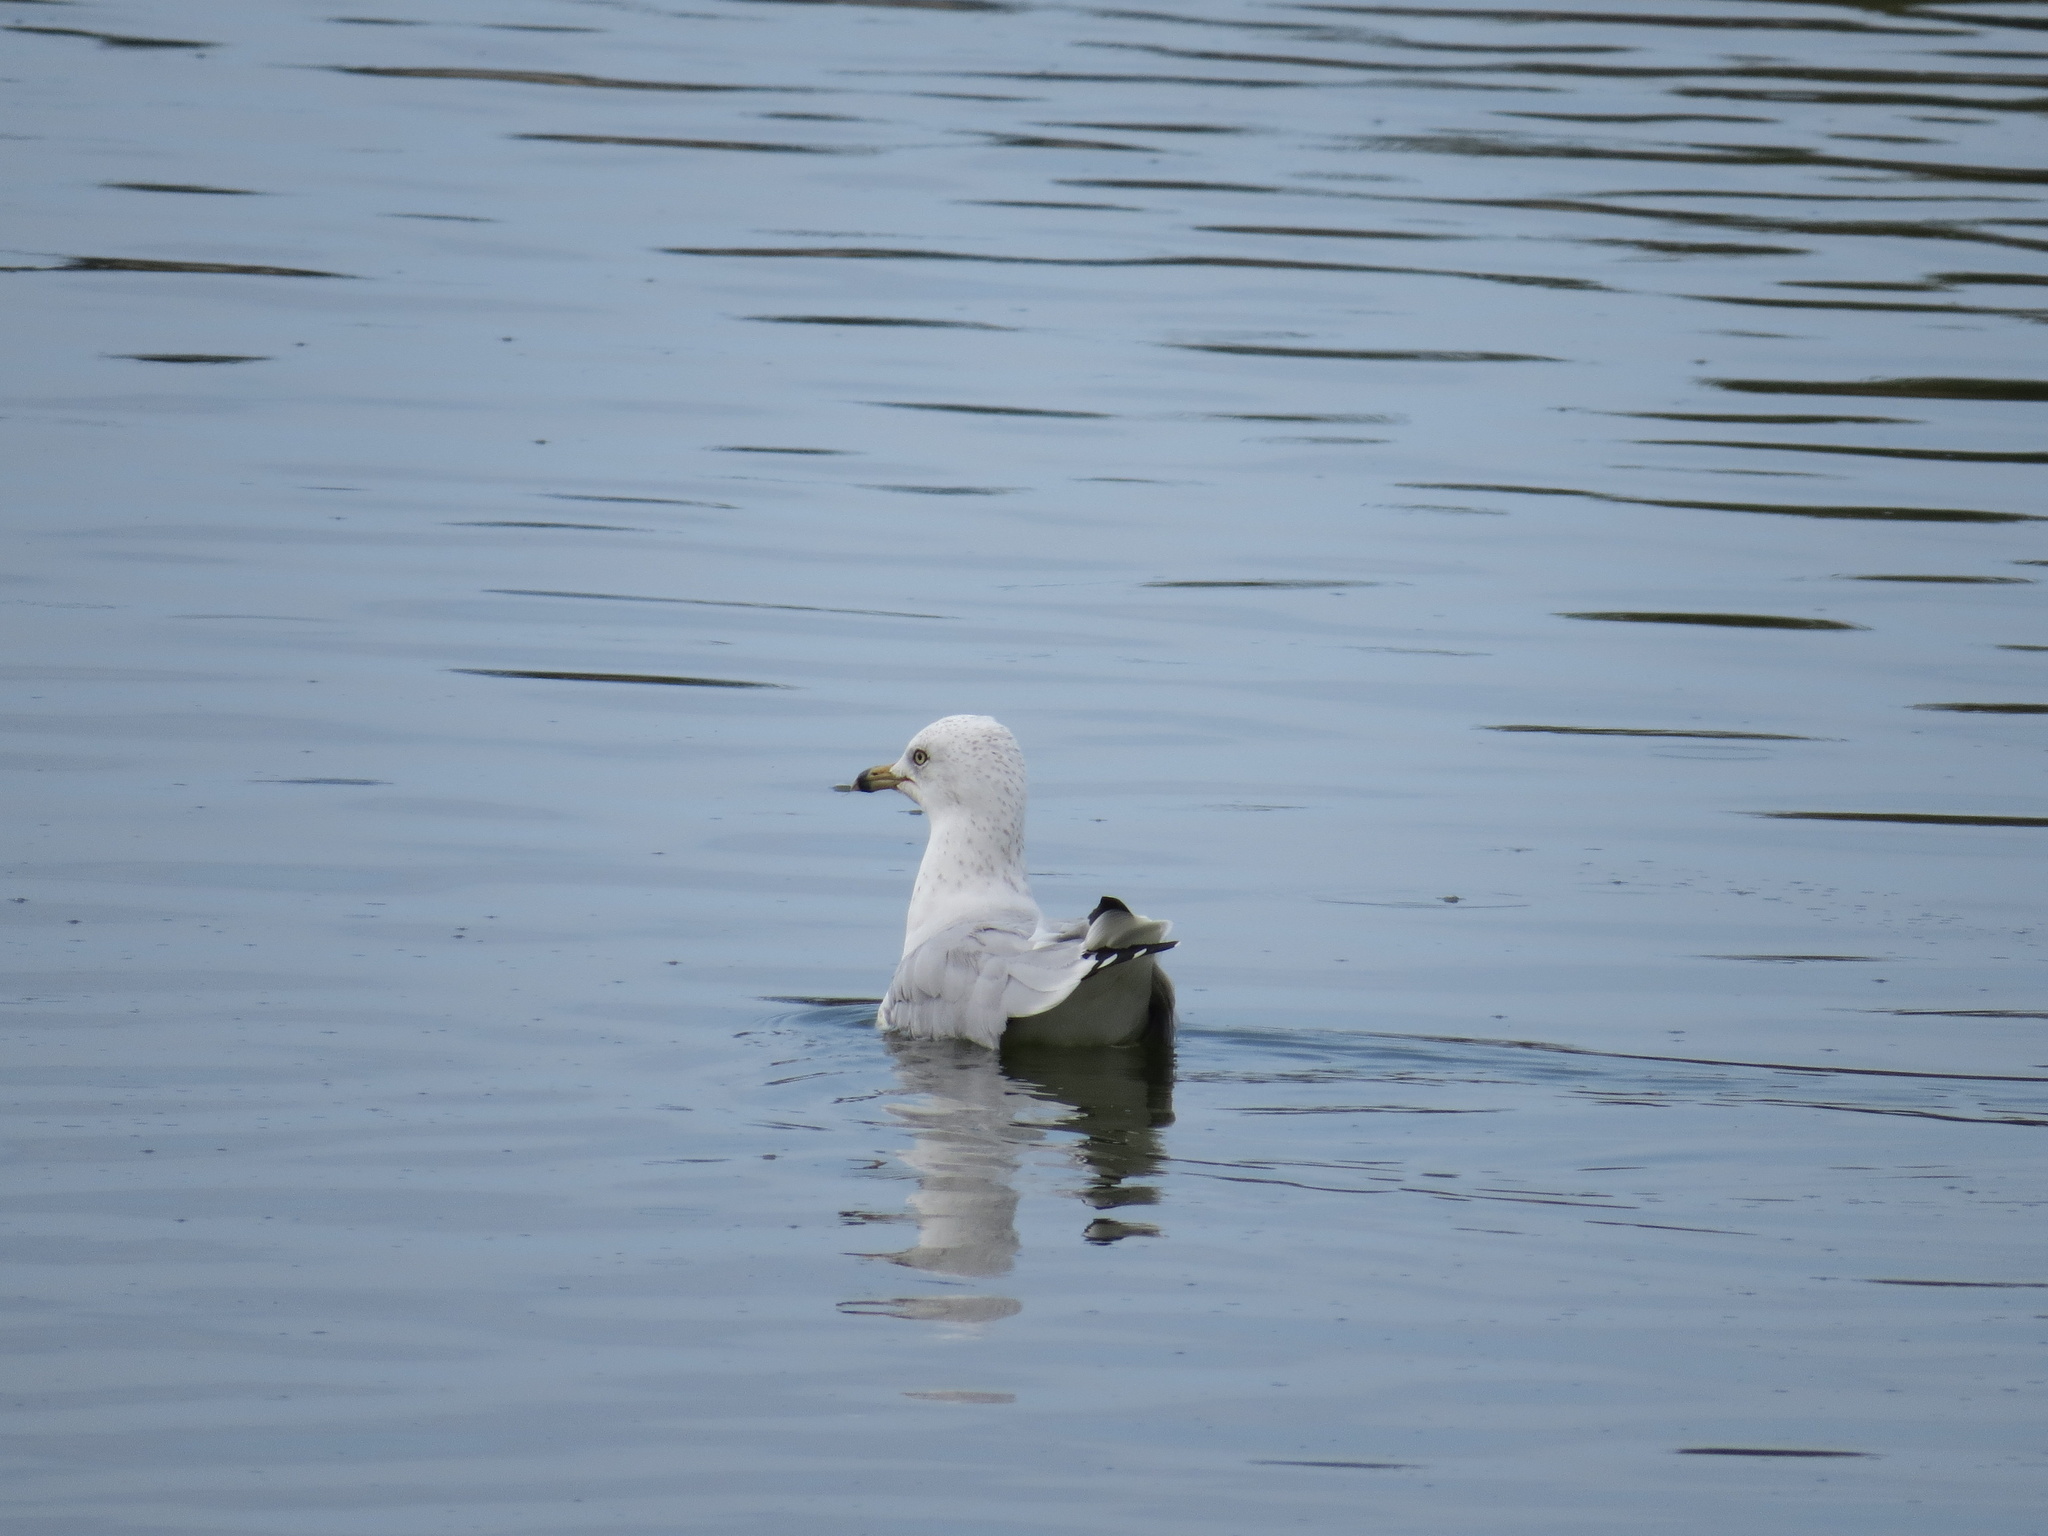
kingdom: Animalia
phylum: Chordata
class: Aves
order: Charadriiformes
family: Laridae
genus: Larus
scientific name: Larus delawarensis
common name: Ring-billed gull
